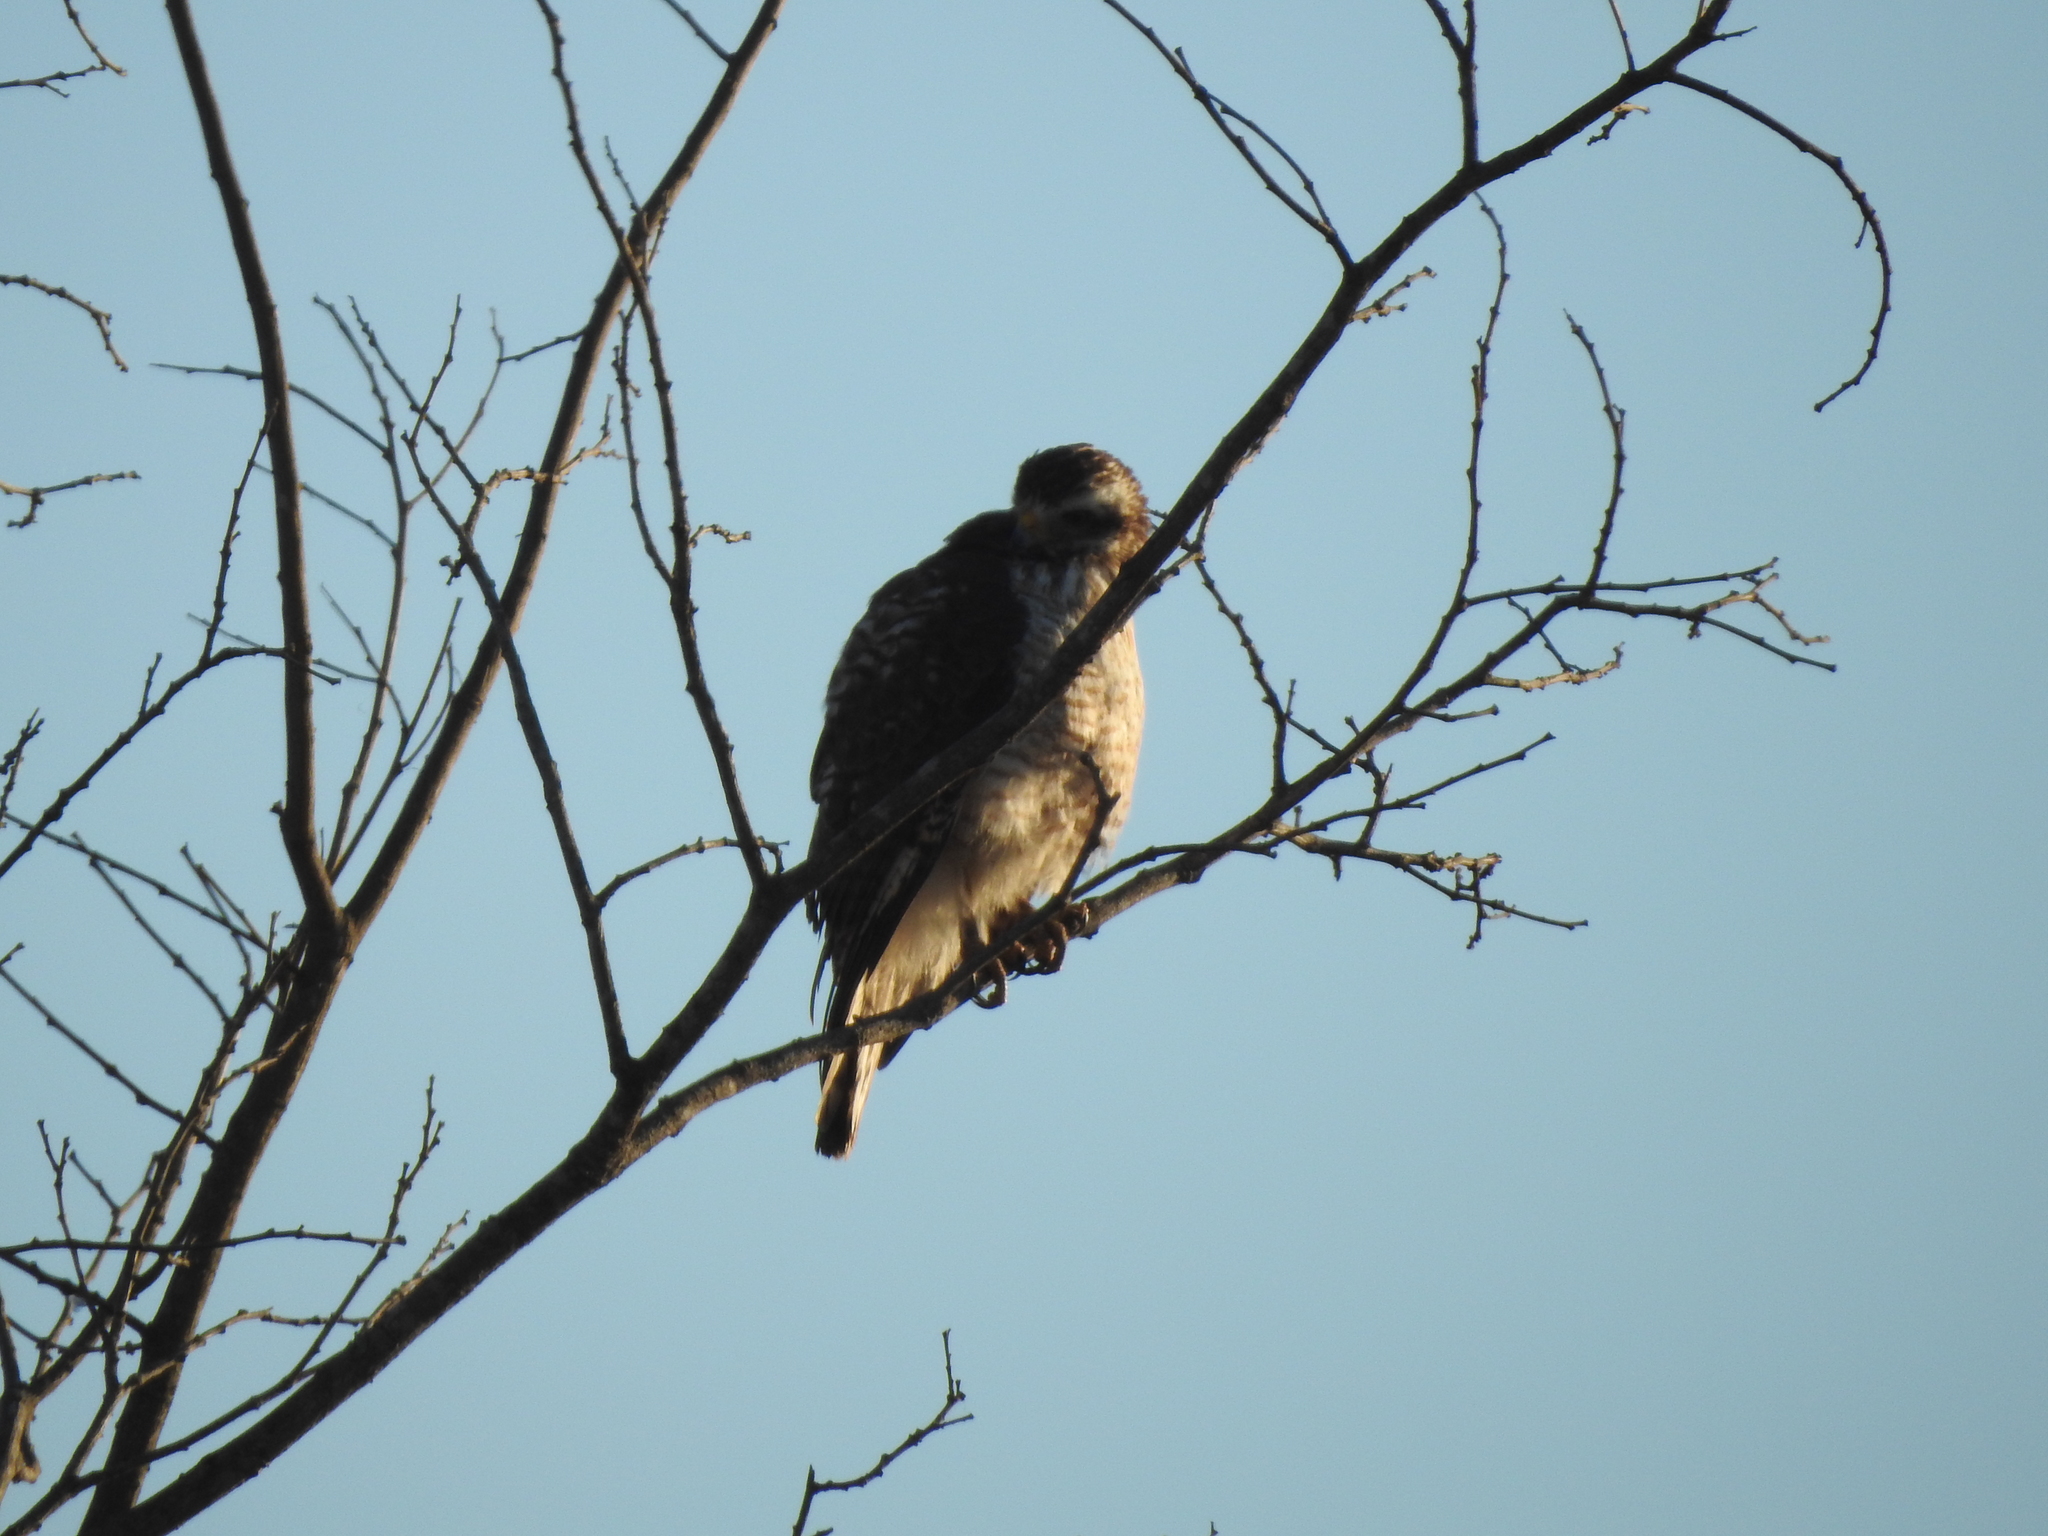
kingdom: Animalia
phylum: Chordata
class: Aves
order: Accipitriformes
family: Accipitridae
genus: Rupornis
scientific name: Rupornis magnirostris
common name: Roadside hawk
